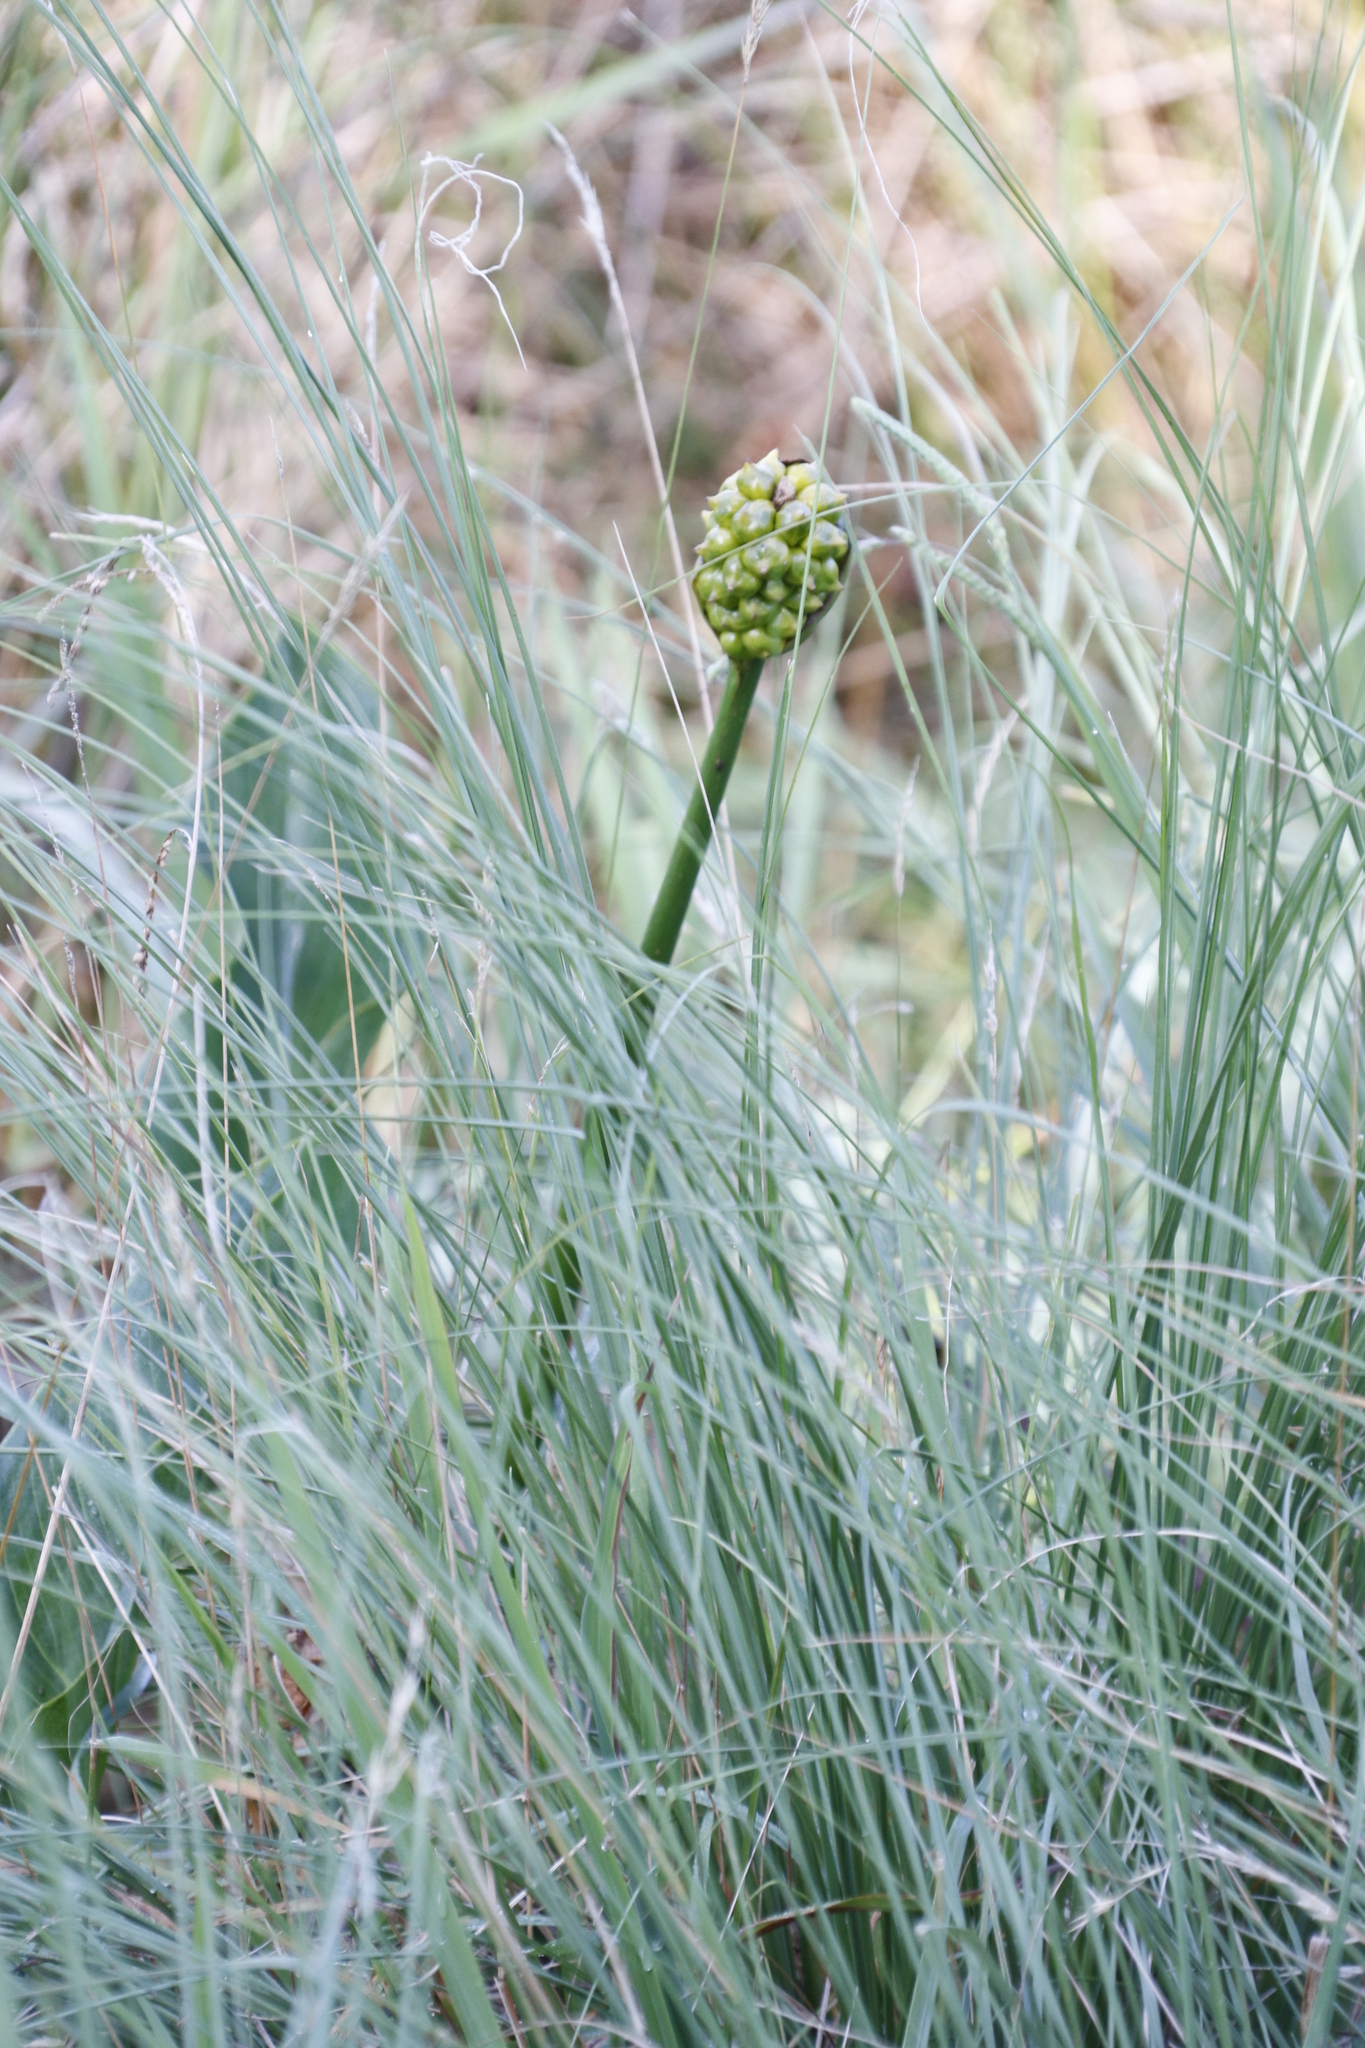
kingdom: Plantae
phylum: Tracheophyta
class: Liliopsida
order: Poales
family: Juncaceae
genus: Juncus
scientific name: Juncus effusus
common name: Soft rush
